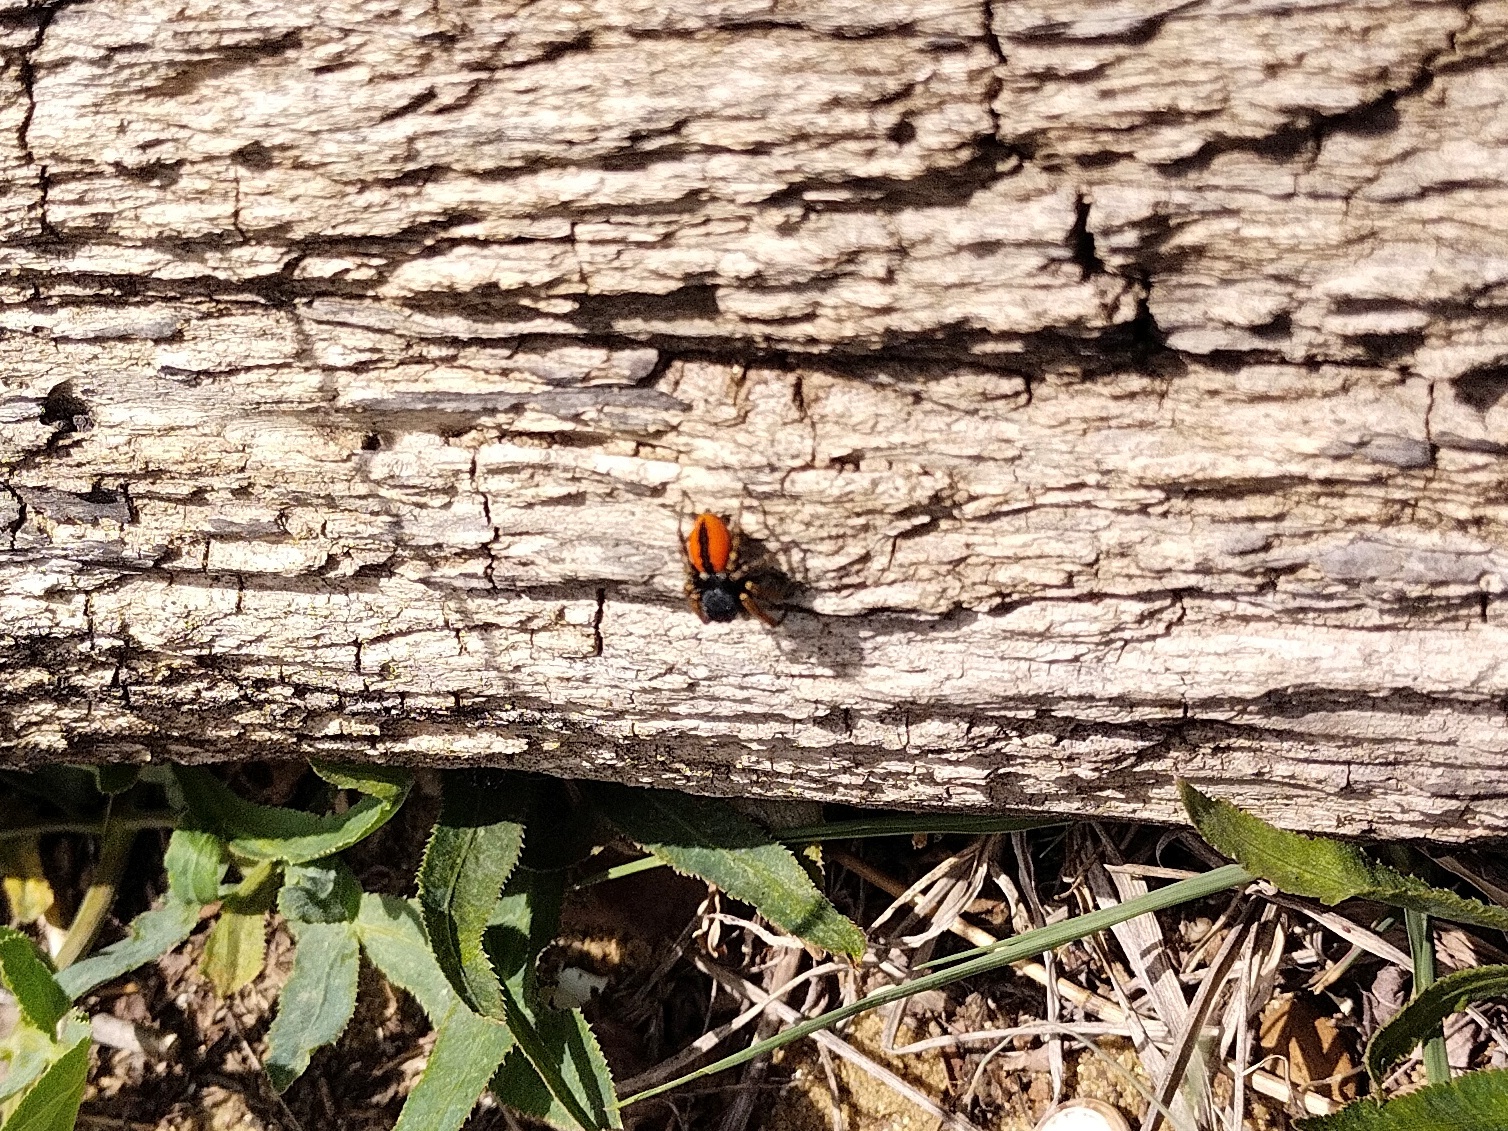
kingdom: Animalia
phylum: Arthropoda
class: Arachnida
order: Araneae
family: Salticidae
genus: Philaeus
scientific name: Philaeus chrysops
